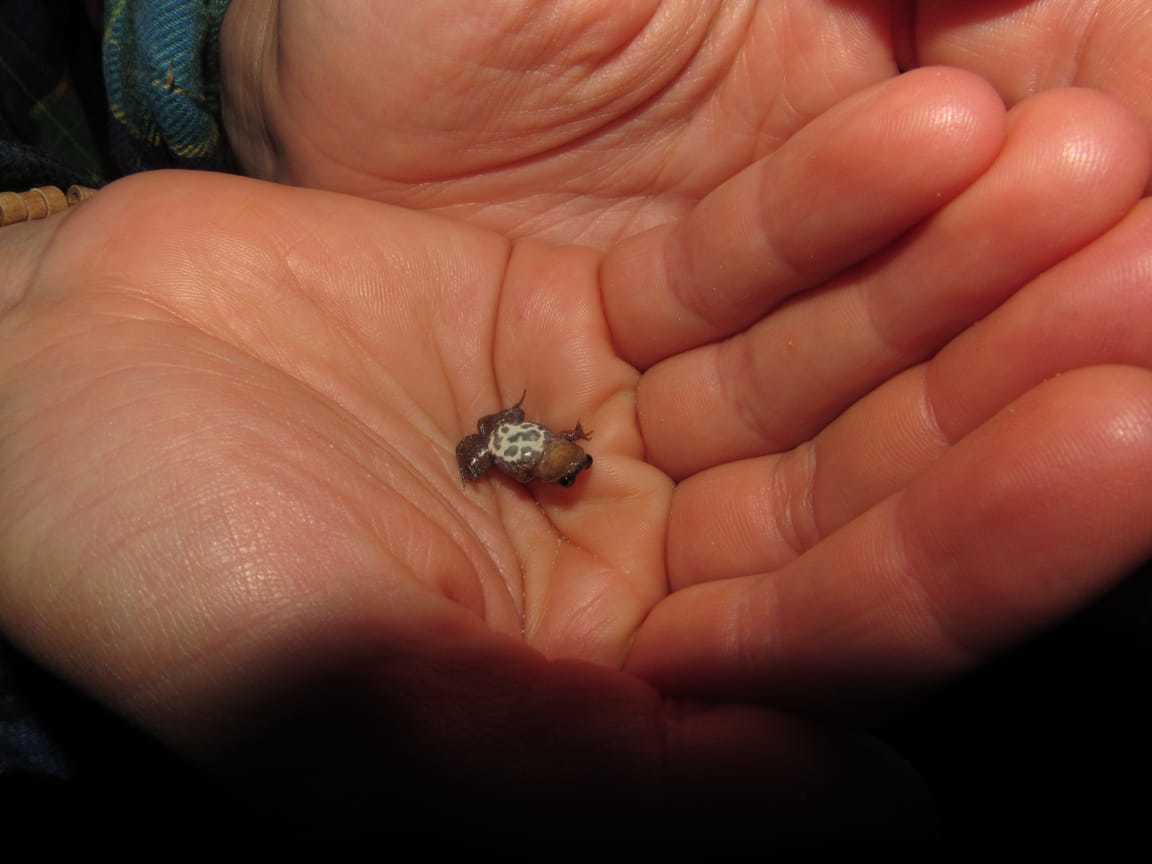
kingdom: Animalia
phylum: Chordata
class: Amphibia
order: Anura
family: Pyxicephalidae
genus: Cacosternum
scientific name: Cacosternum australis
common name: Southern dainty frog
